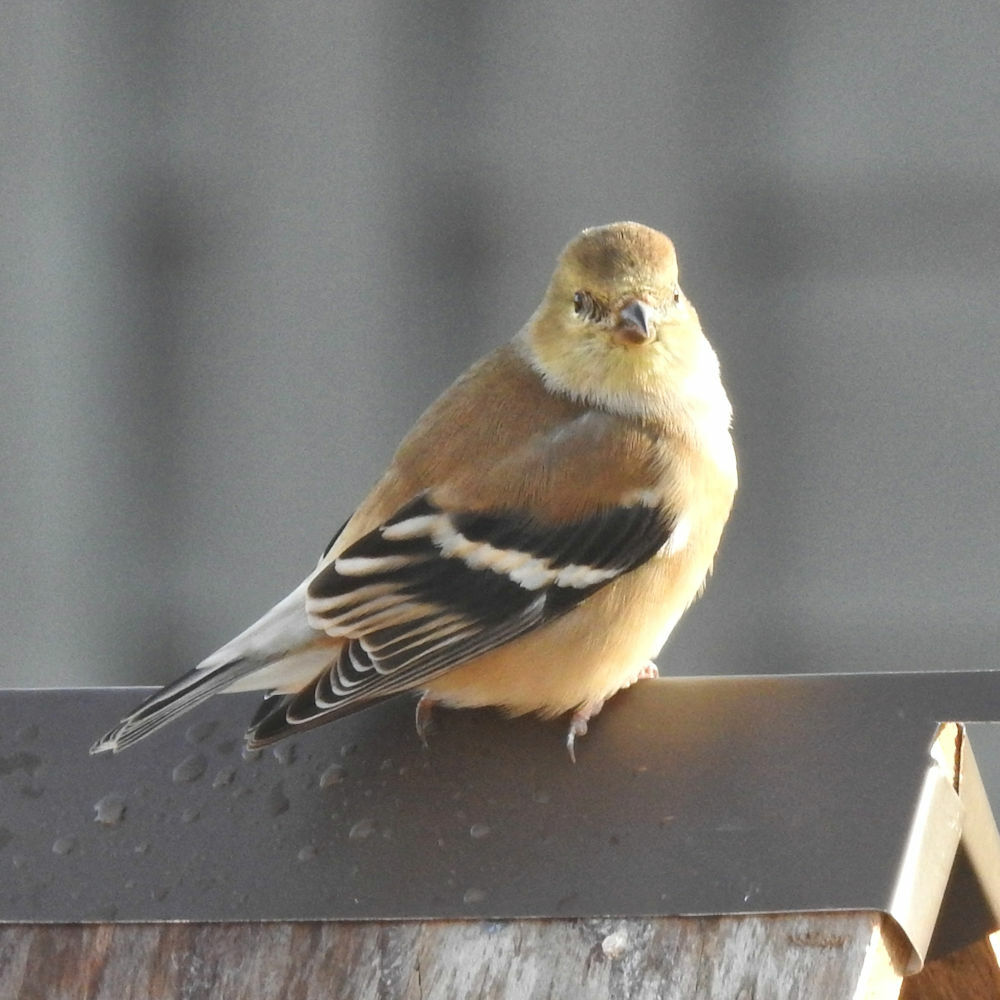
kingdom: Animalia
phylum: Chordata
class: Aves
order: Passeriformes
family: Fringillidae
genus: Spinus
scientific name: Spinus tristis
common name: American goldfinch
